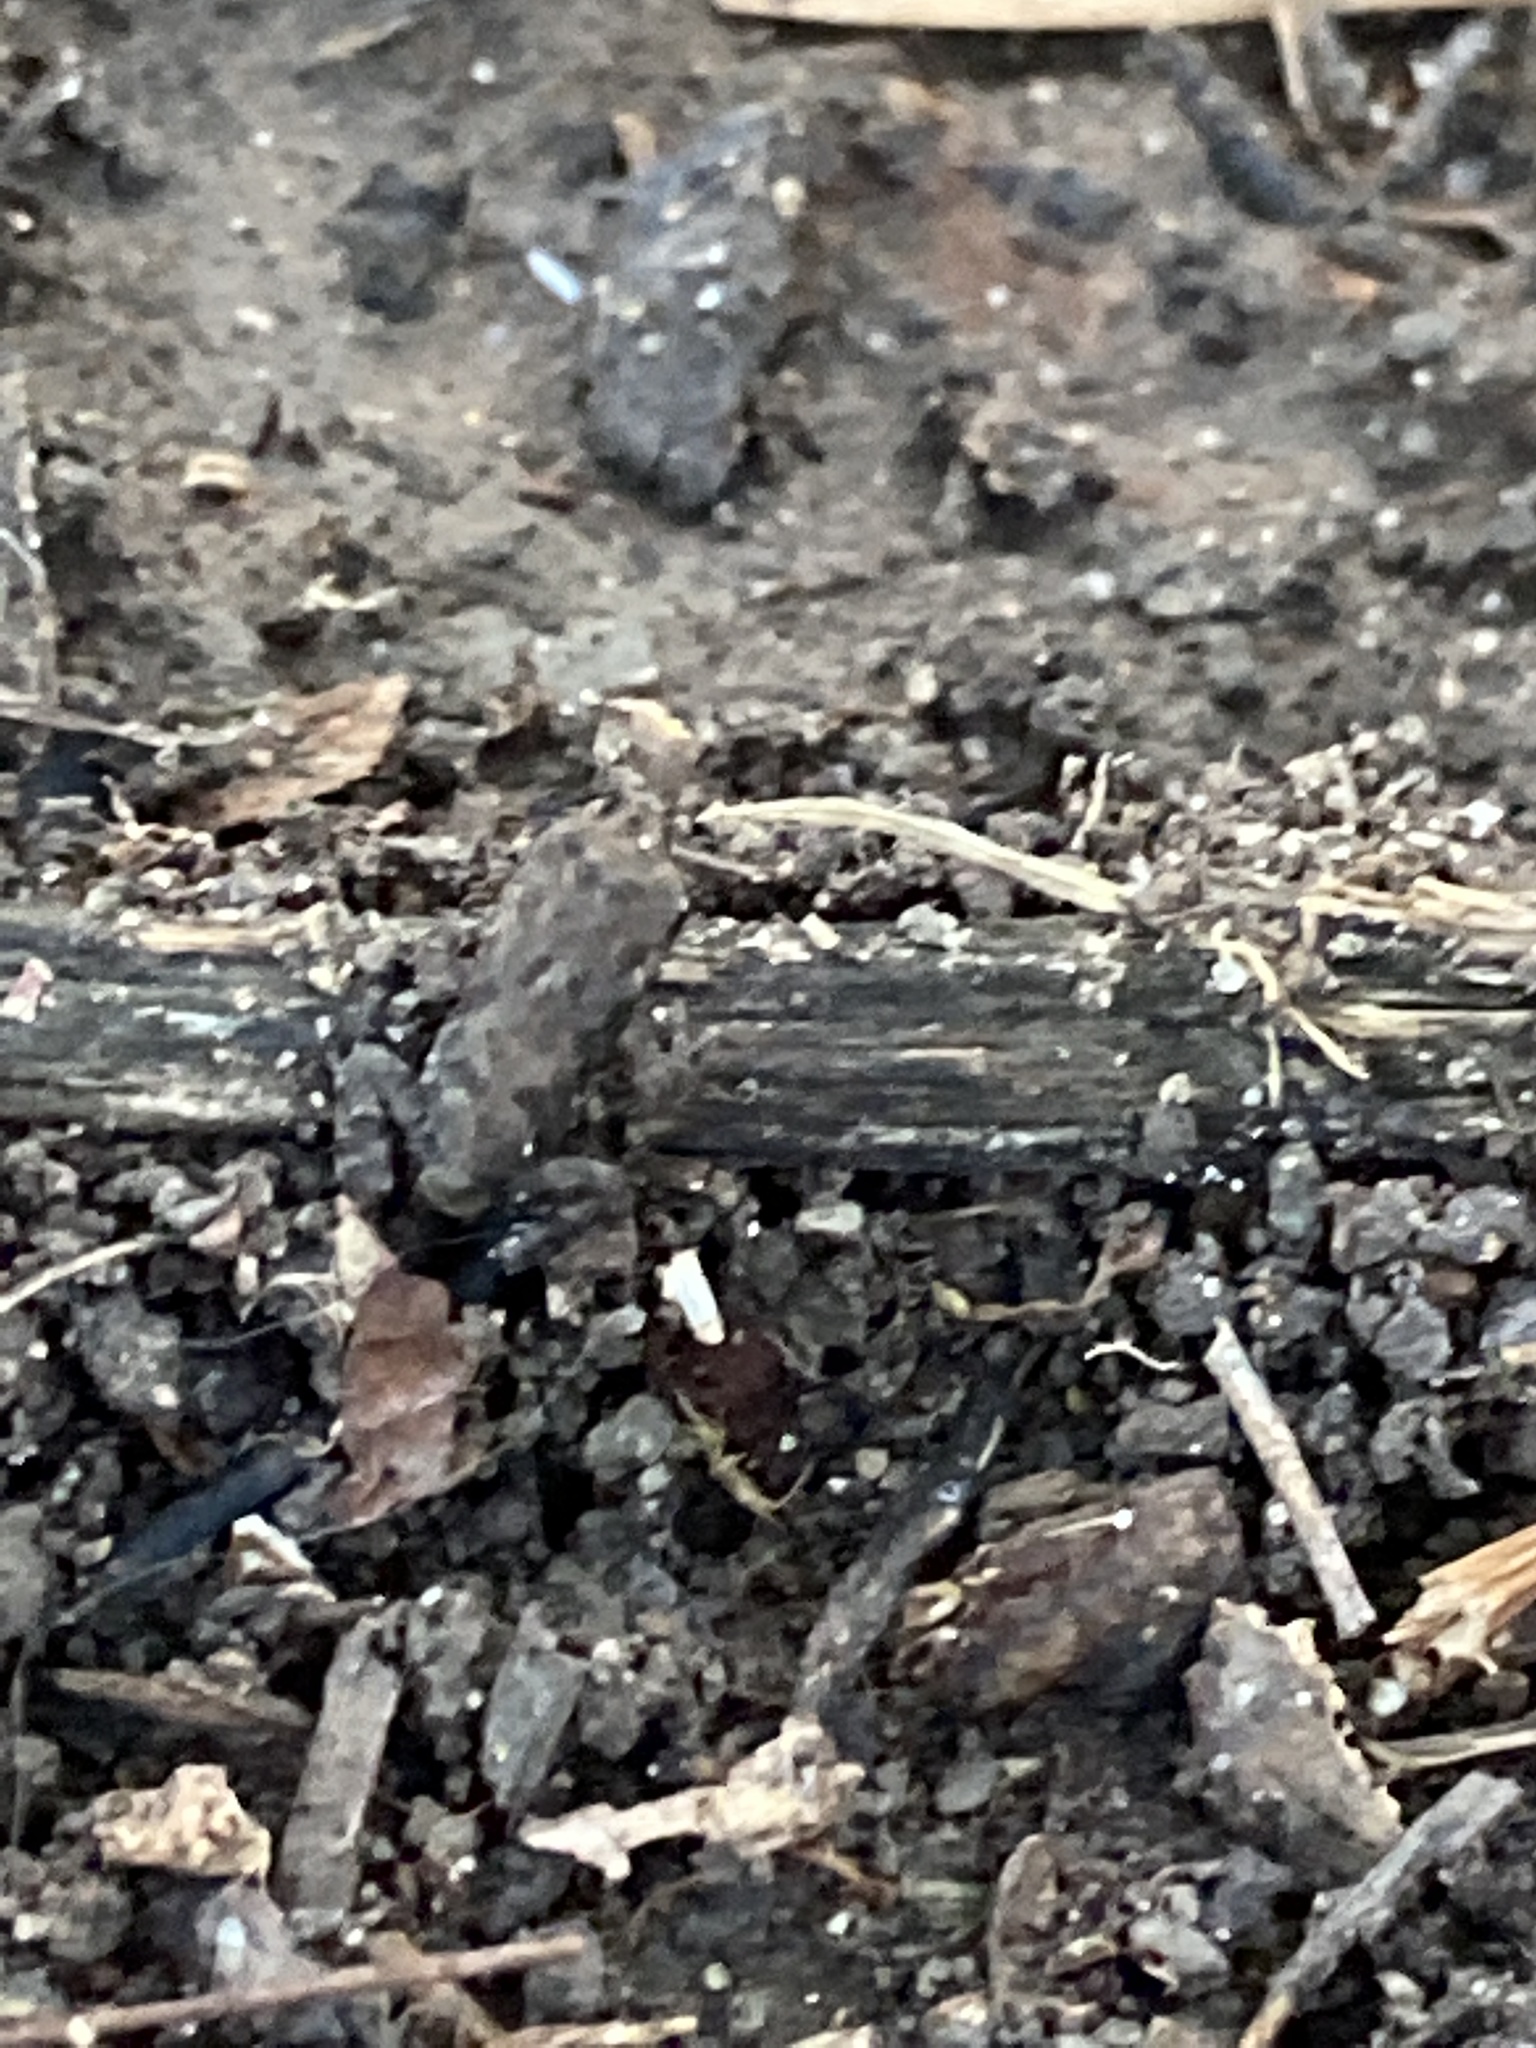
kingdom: Animalia
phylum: Chordata
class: Amphibia
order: Anura
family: Eleutherodactylidae
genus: Eleutherodactylus
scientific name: Eleutherodactylus campi
